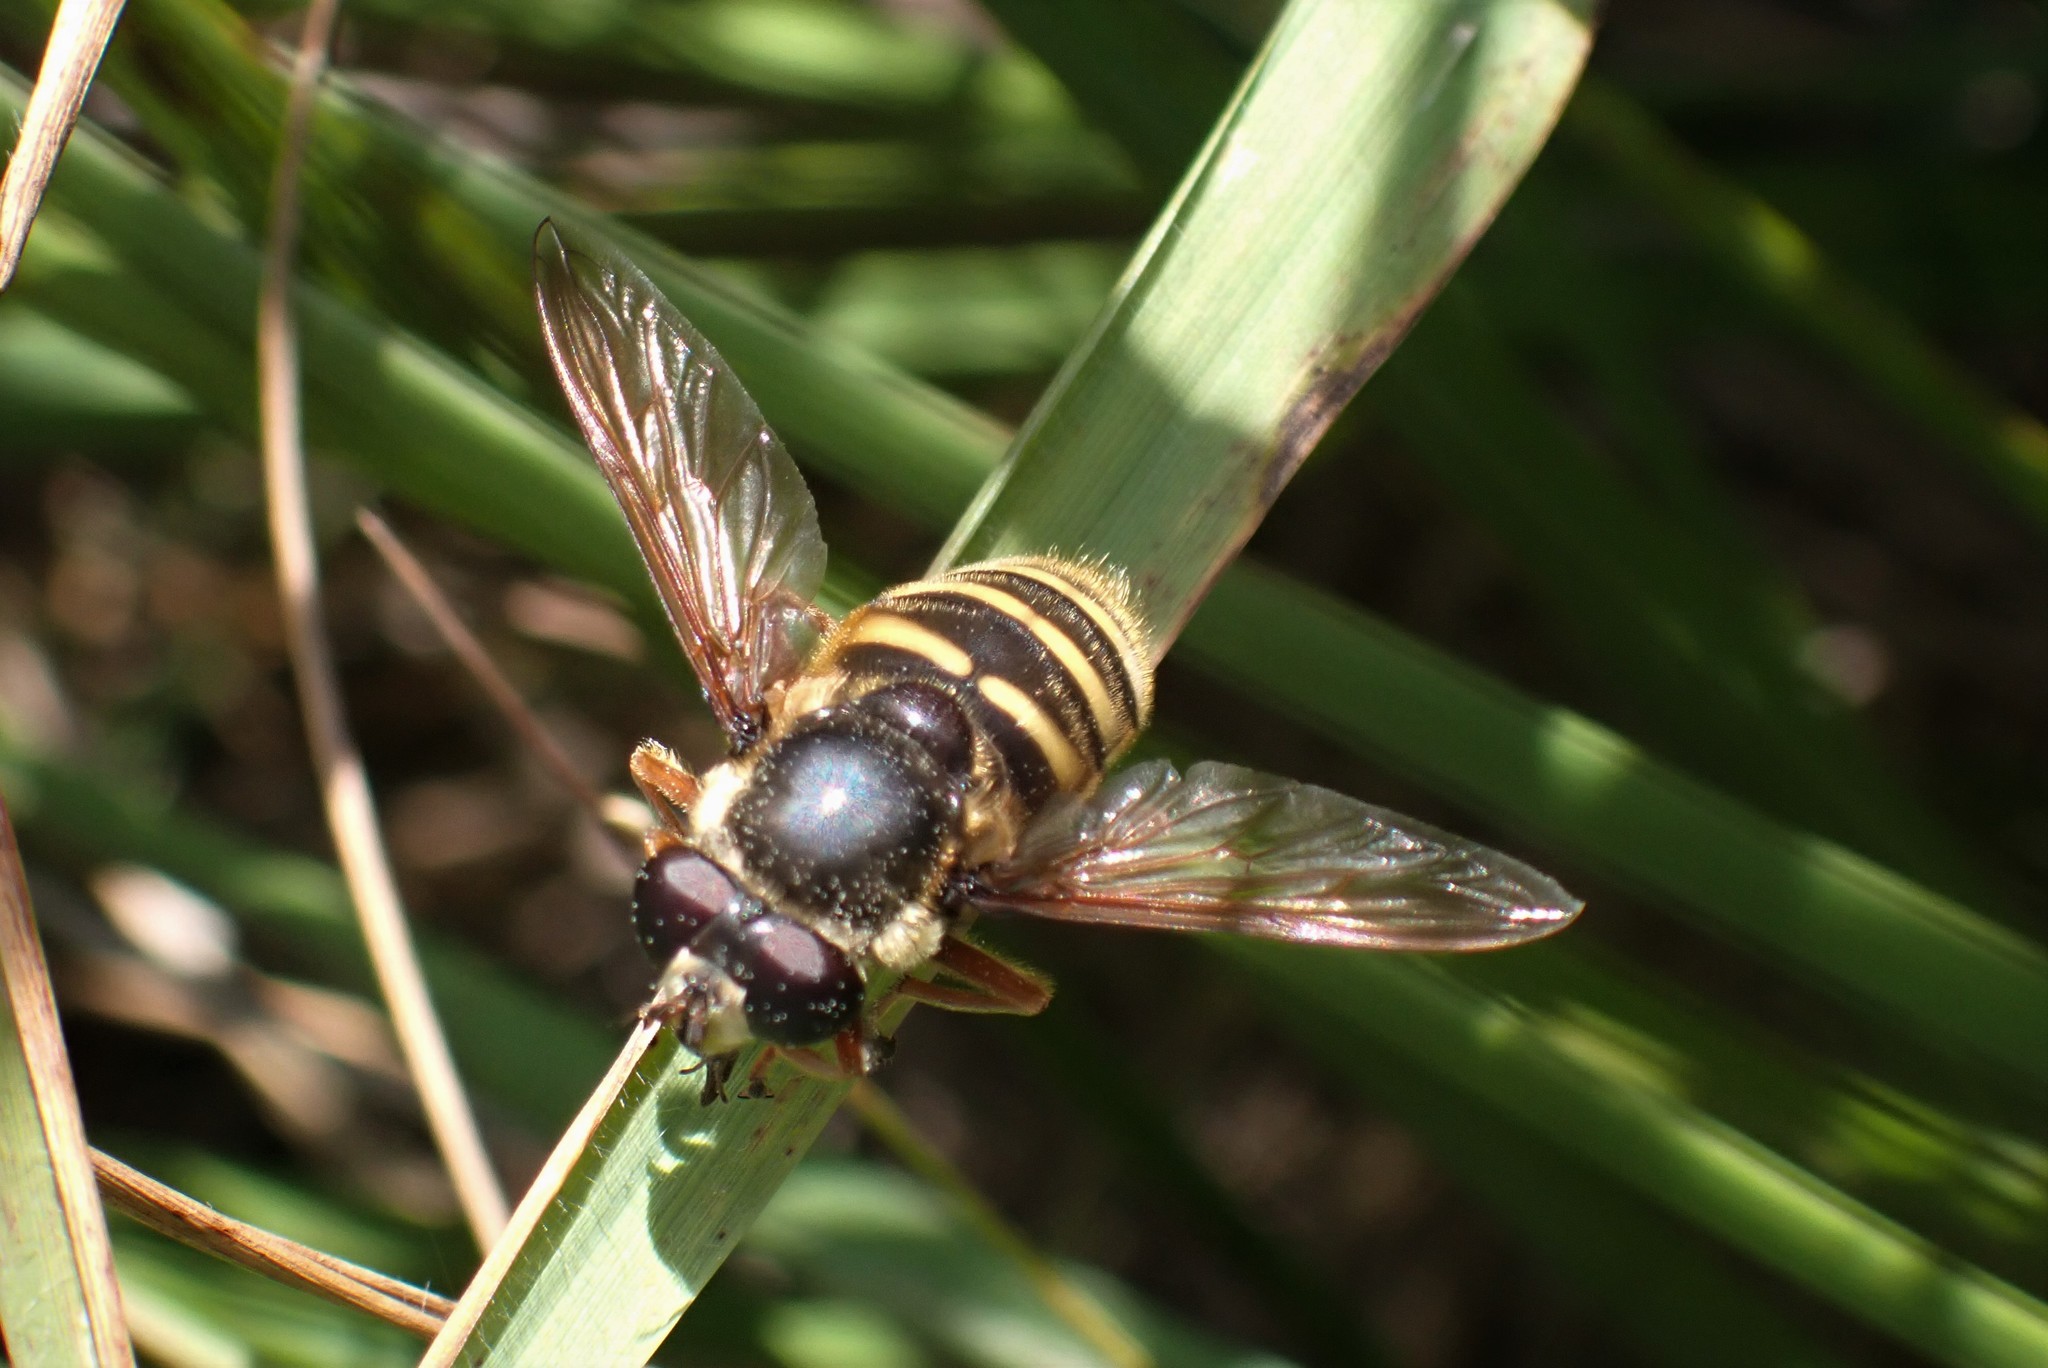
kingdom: Animalia
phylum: Arthropoda
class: Insecta
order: Diptera
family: Syrphidae
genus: Sericomyia
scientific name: Sericomyia silentis
